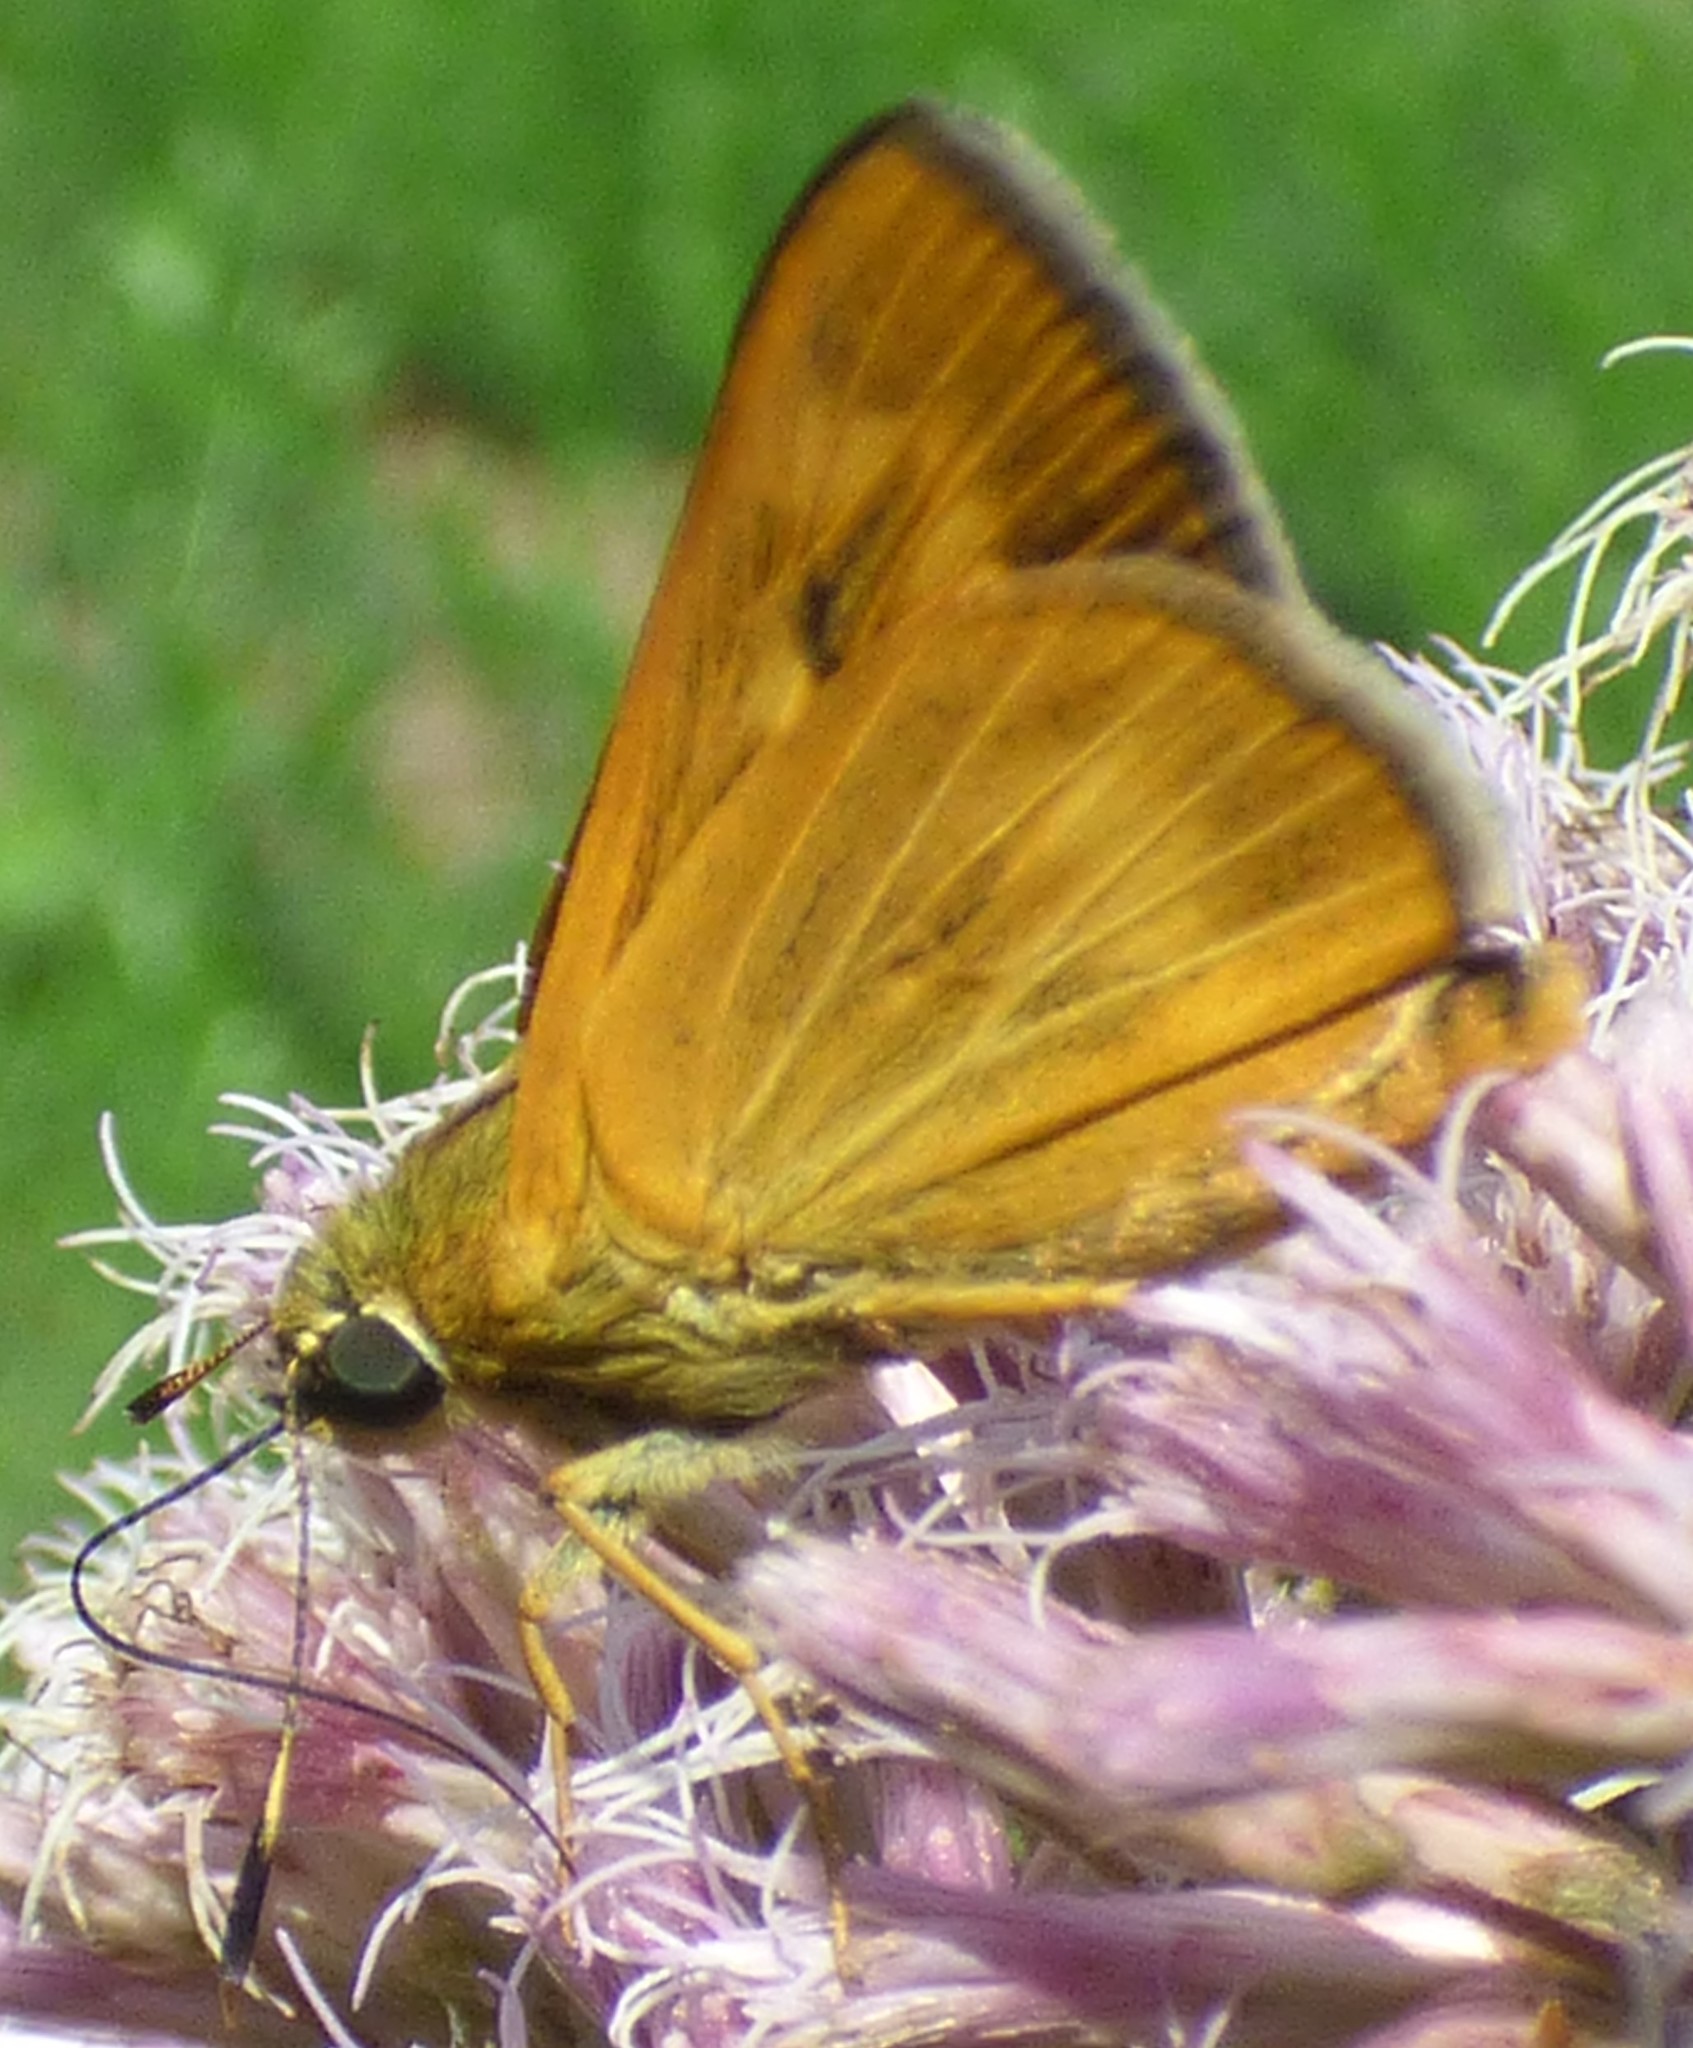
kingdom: Animalia
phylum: Arthropoda
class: Insecta
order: Lepidoptera
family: Hesperiidae
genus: Problema
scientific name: Problema byssus
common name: Byssus skipper
